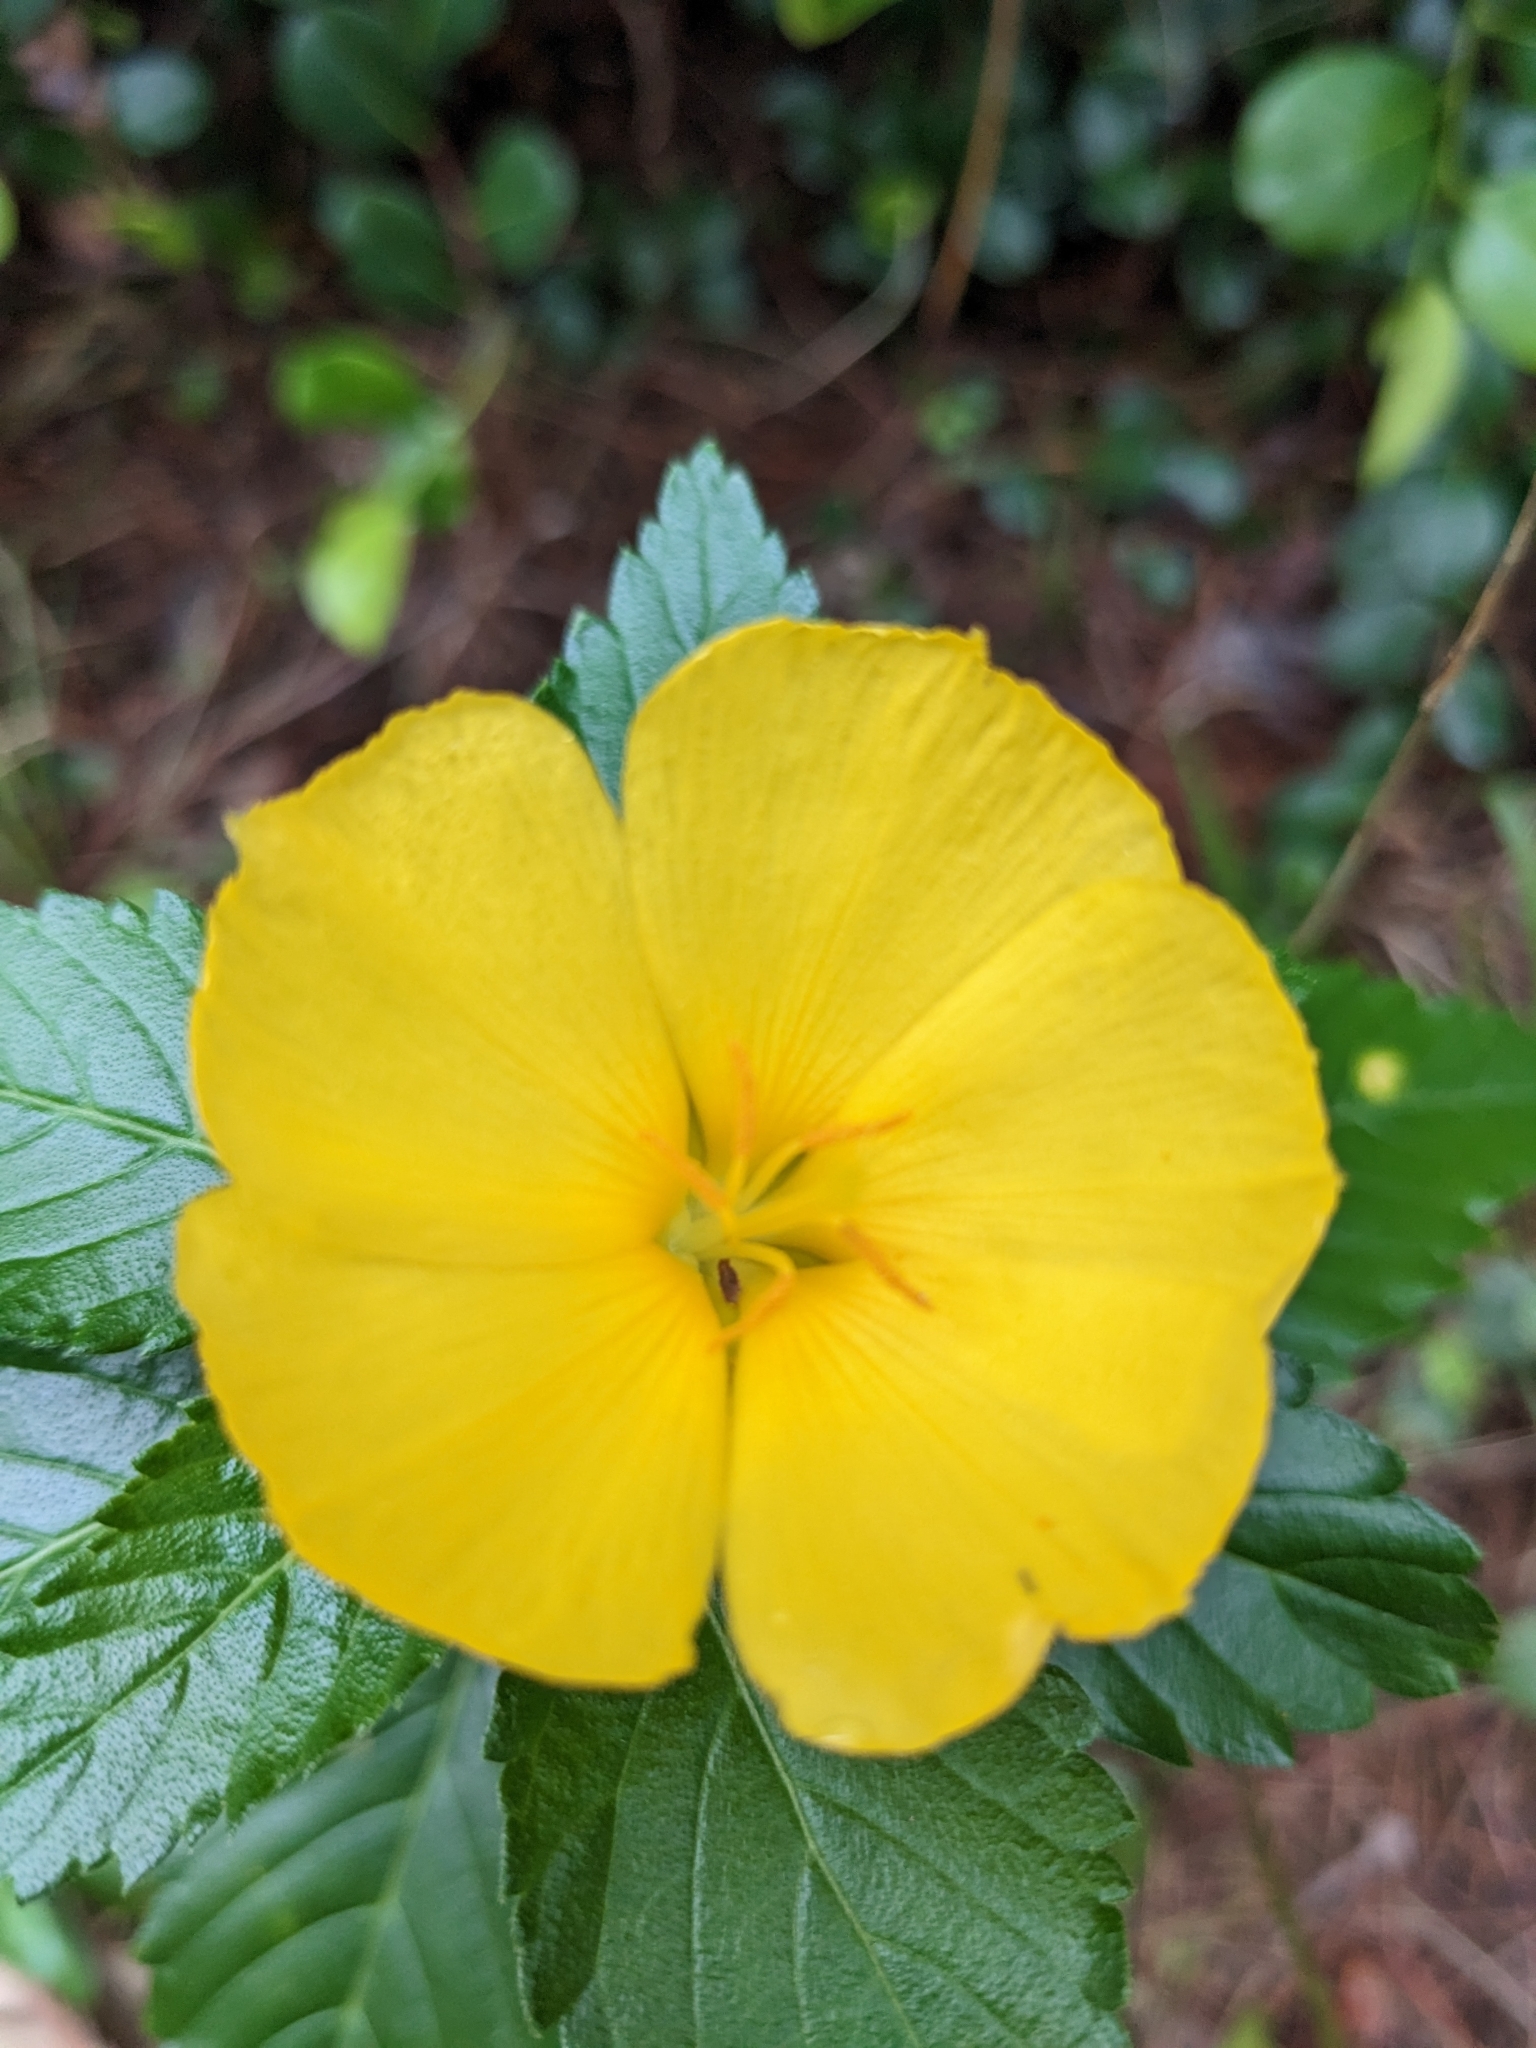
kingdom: Plantae
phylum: Tracheophyta
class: Magnoliopsida
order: Malpighiales
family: Turneraceae
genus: Turnera
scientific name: Turnera ulmifolia
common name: Ramgoat dashalong
